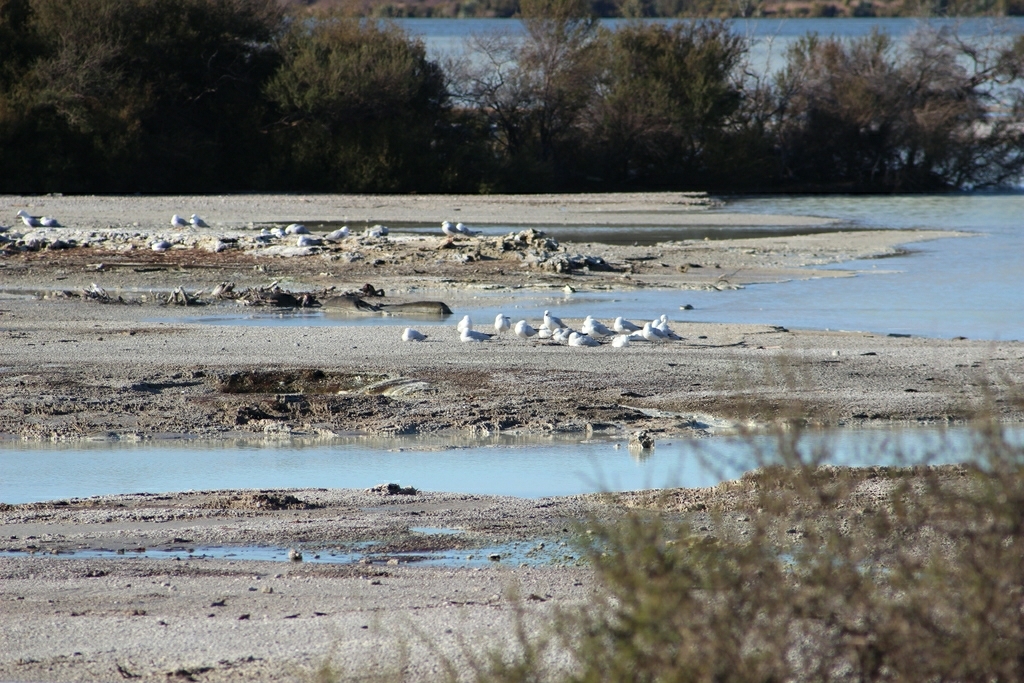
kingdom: Animalia
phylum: Chordata
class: Aves
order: Charadriiformes
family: Laridae
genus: Chroicocephalus
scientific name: Chroicocephalus bulleri
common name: Black-billed gull
